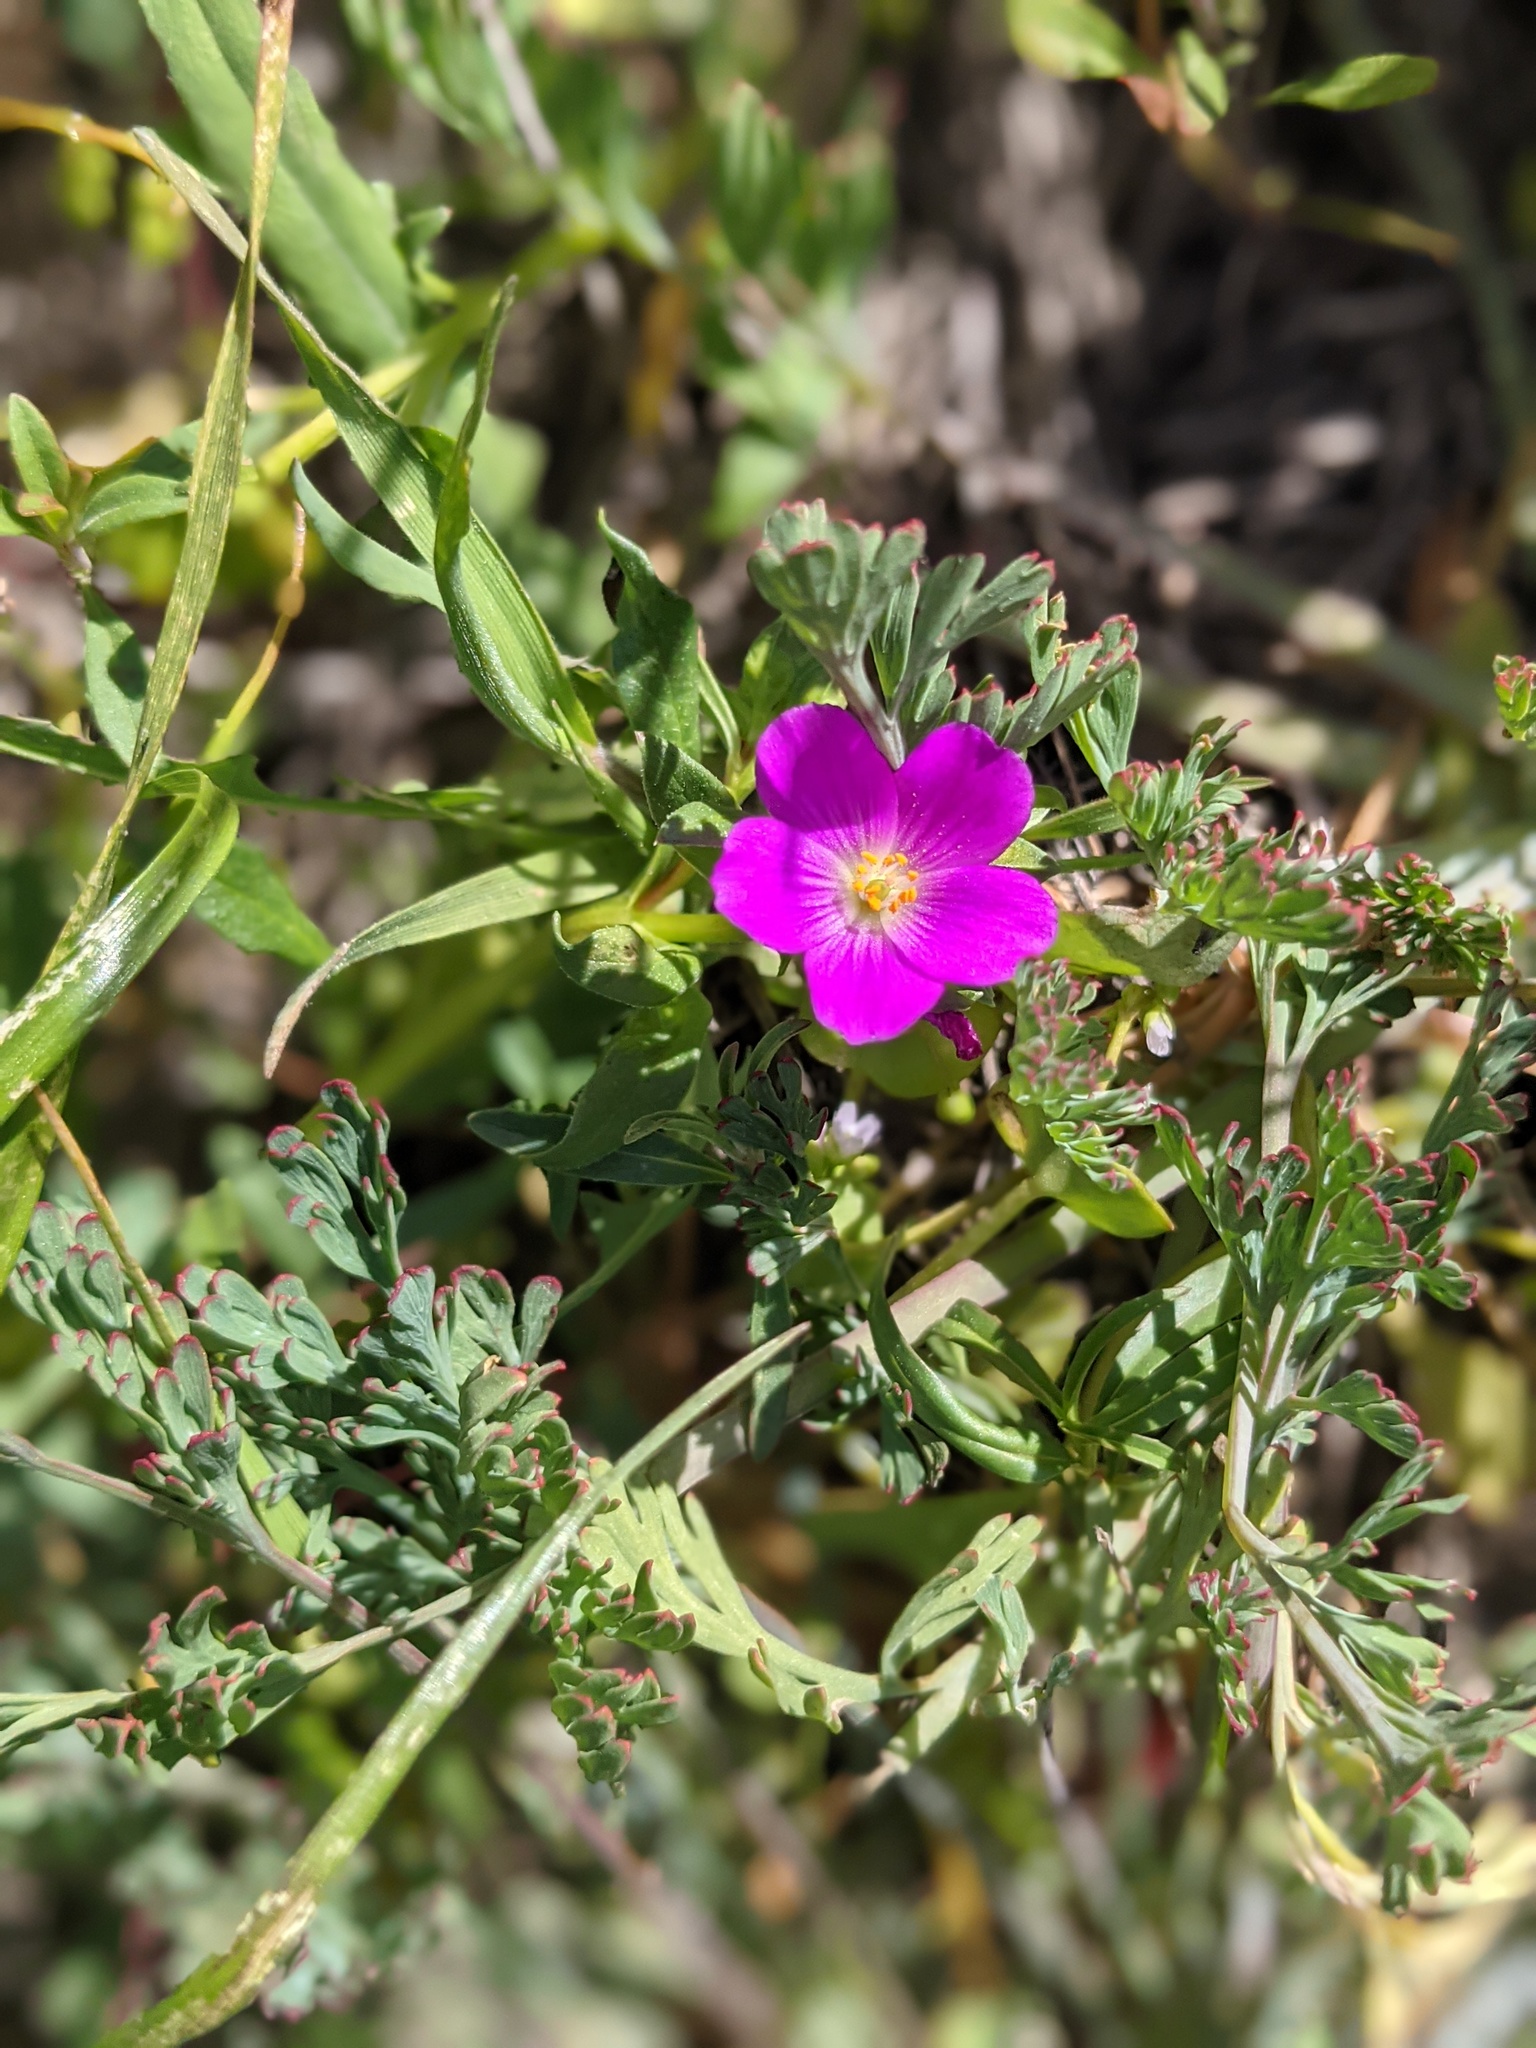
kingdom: Plantae
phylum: Tracheophyta
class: Magnoliopsida
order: Caryophyllales
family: Montiaceae
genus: Calandrinia
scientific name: Calandrinia menziesii
